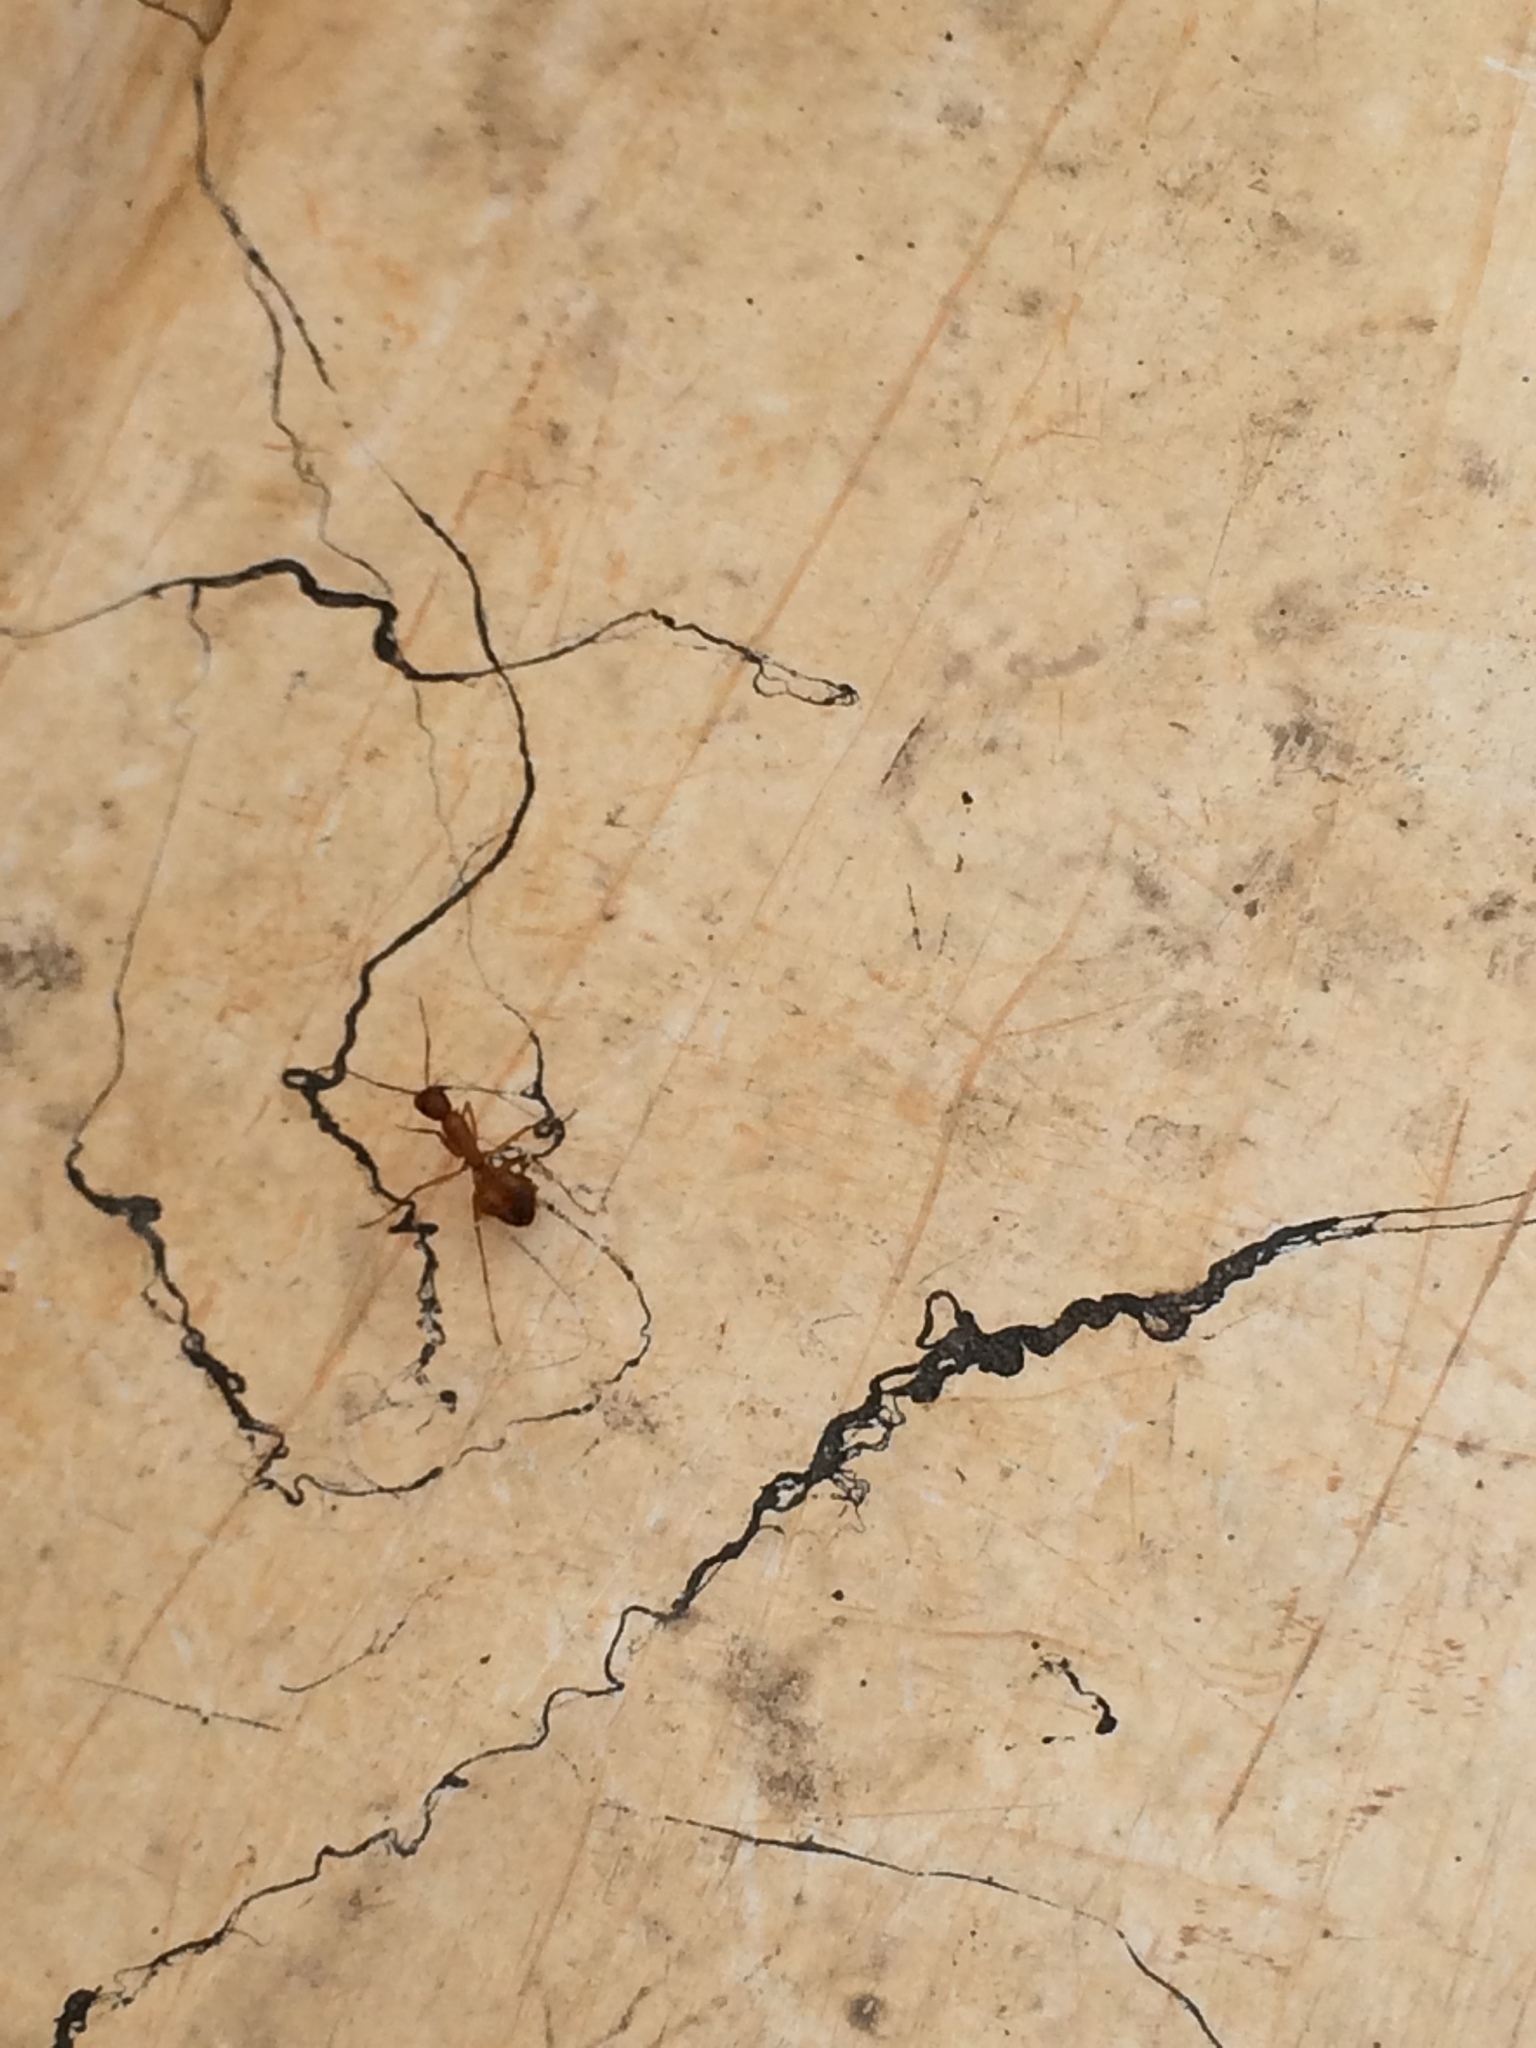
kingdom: Animalia
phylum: Arthropoda
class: Insecta
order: Hymenoptera
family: Formicidae
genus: Camponotus
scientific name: Camponotus castaneus
